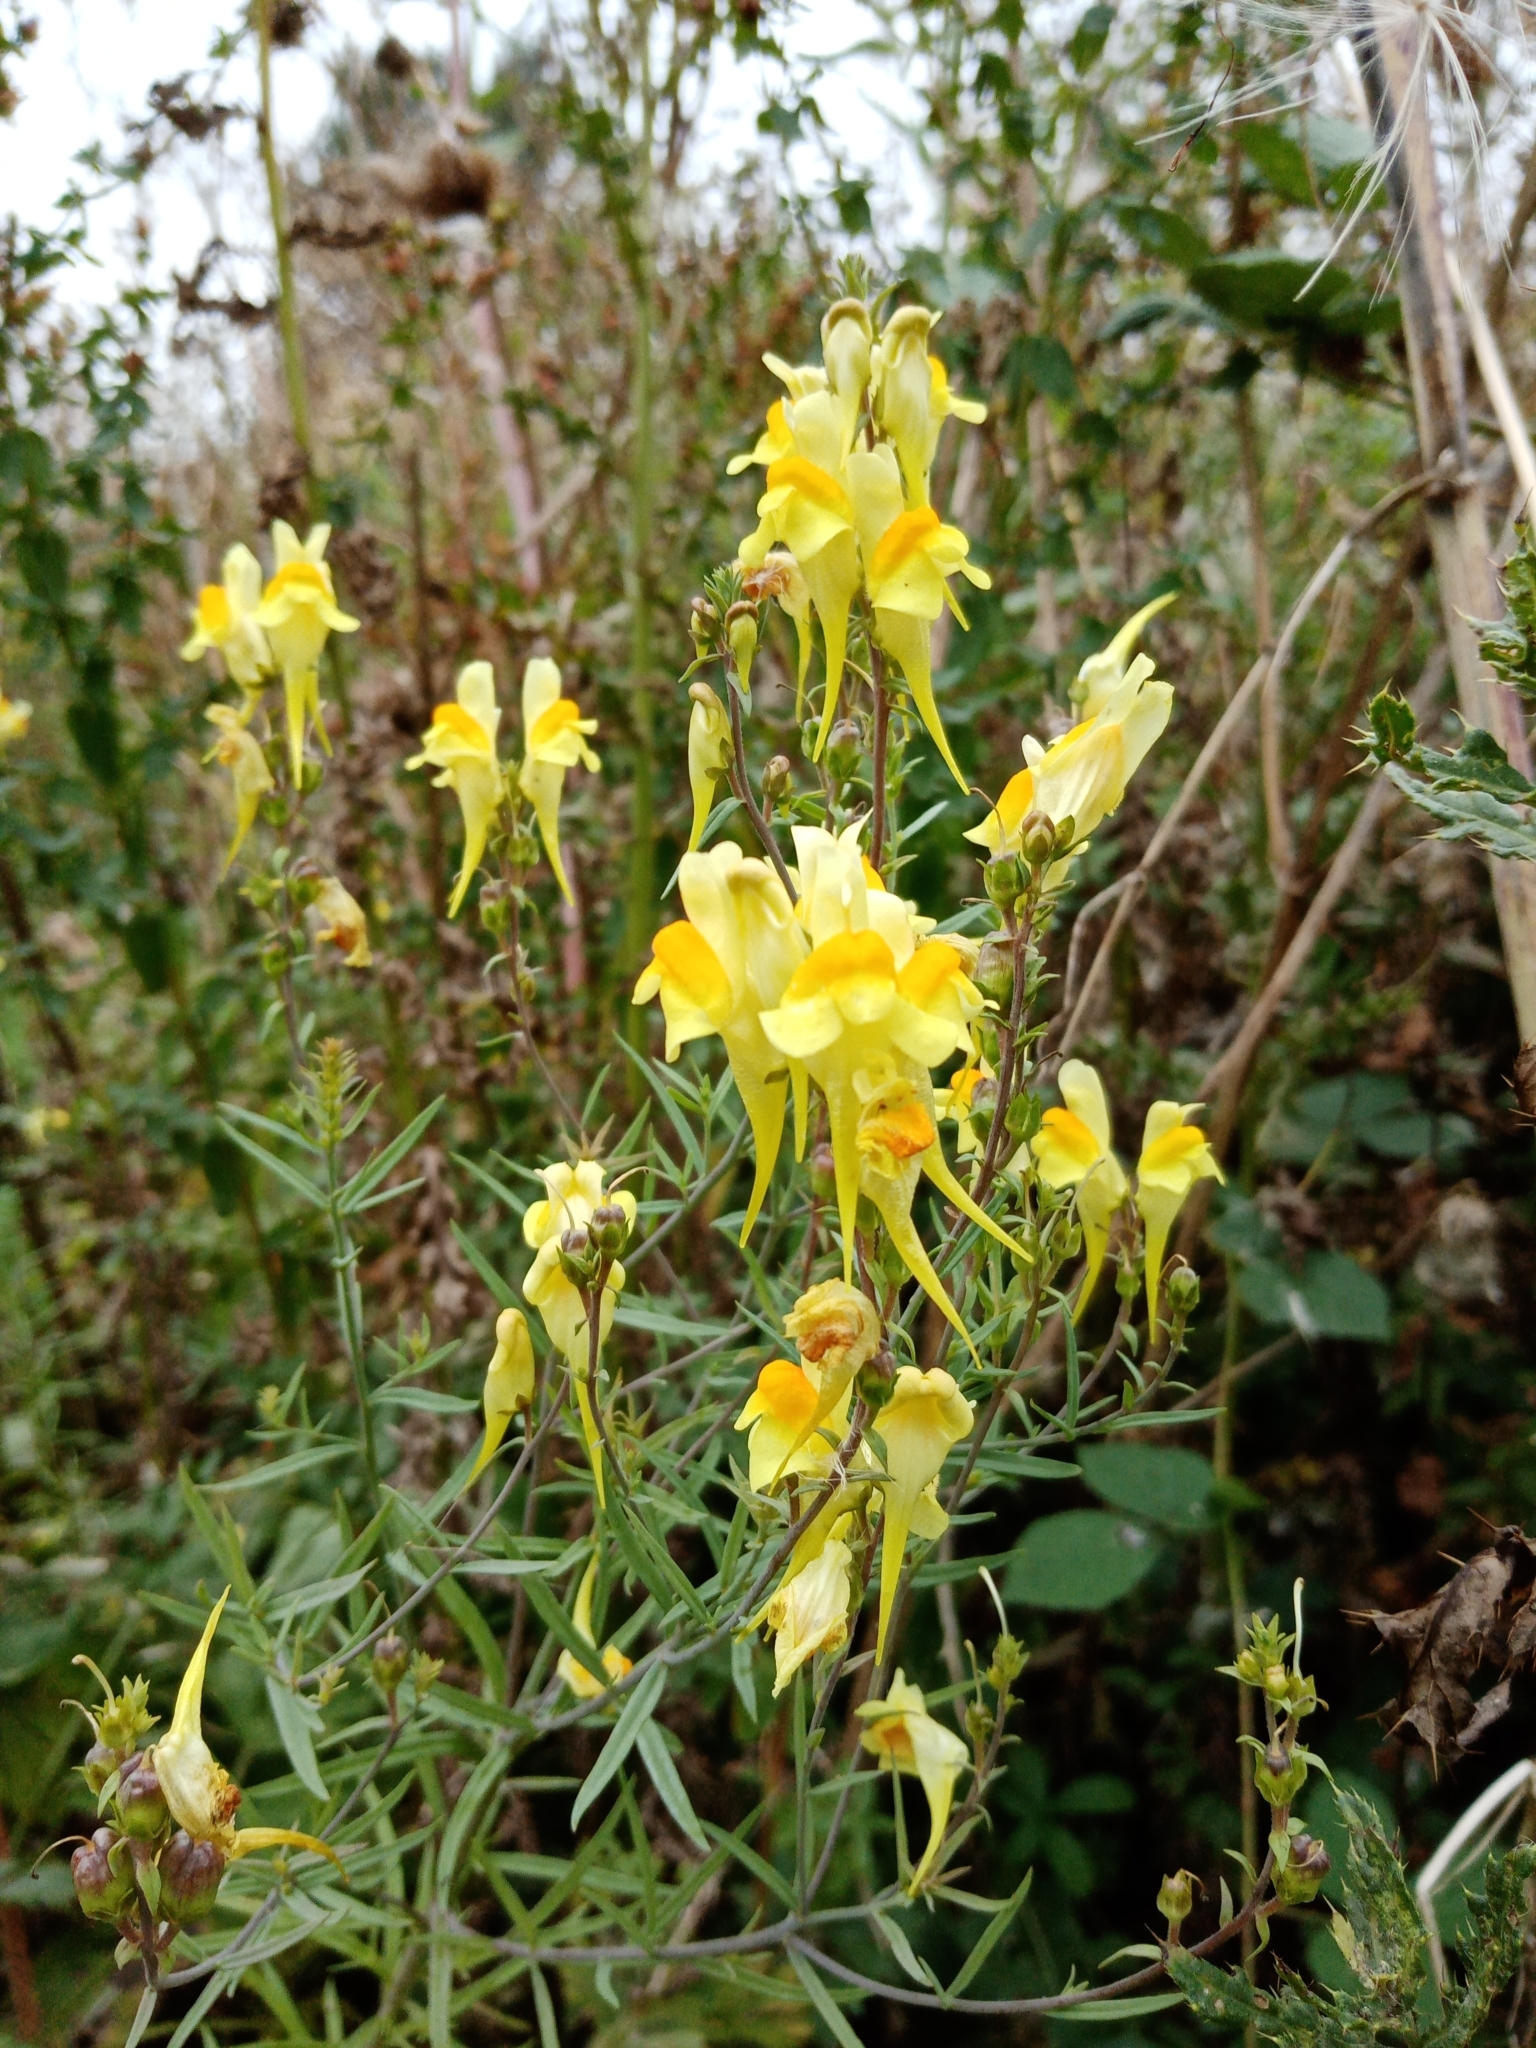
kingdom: Plantae
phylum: Tracheophyta
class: Magnoliopsida
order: Lamiales
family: Plantaginaceae
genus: Linaria
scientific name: Linaria vulgaris
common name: Butter and eggs
